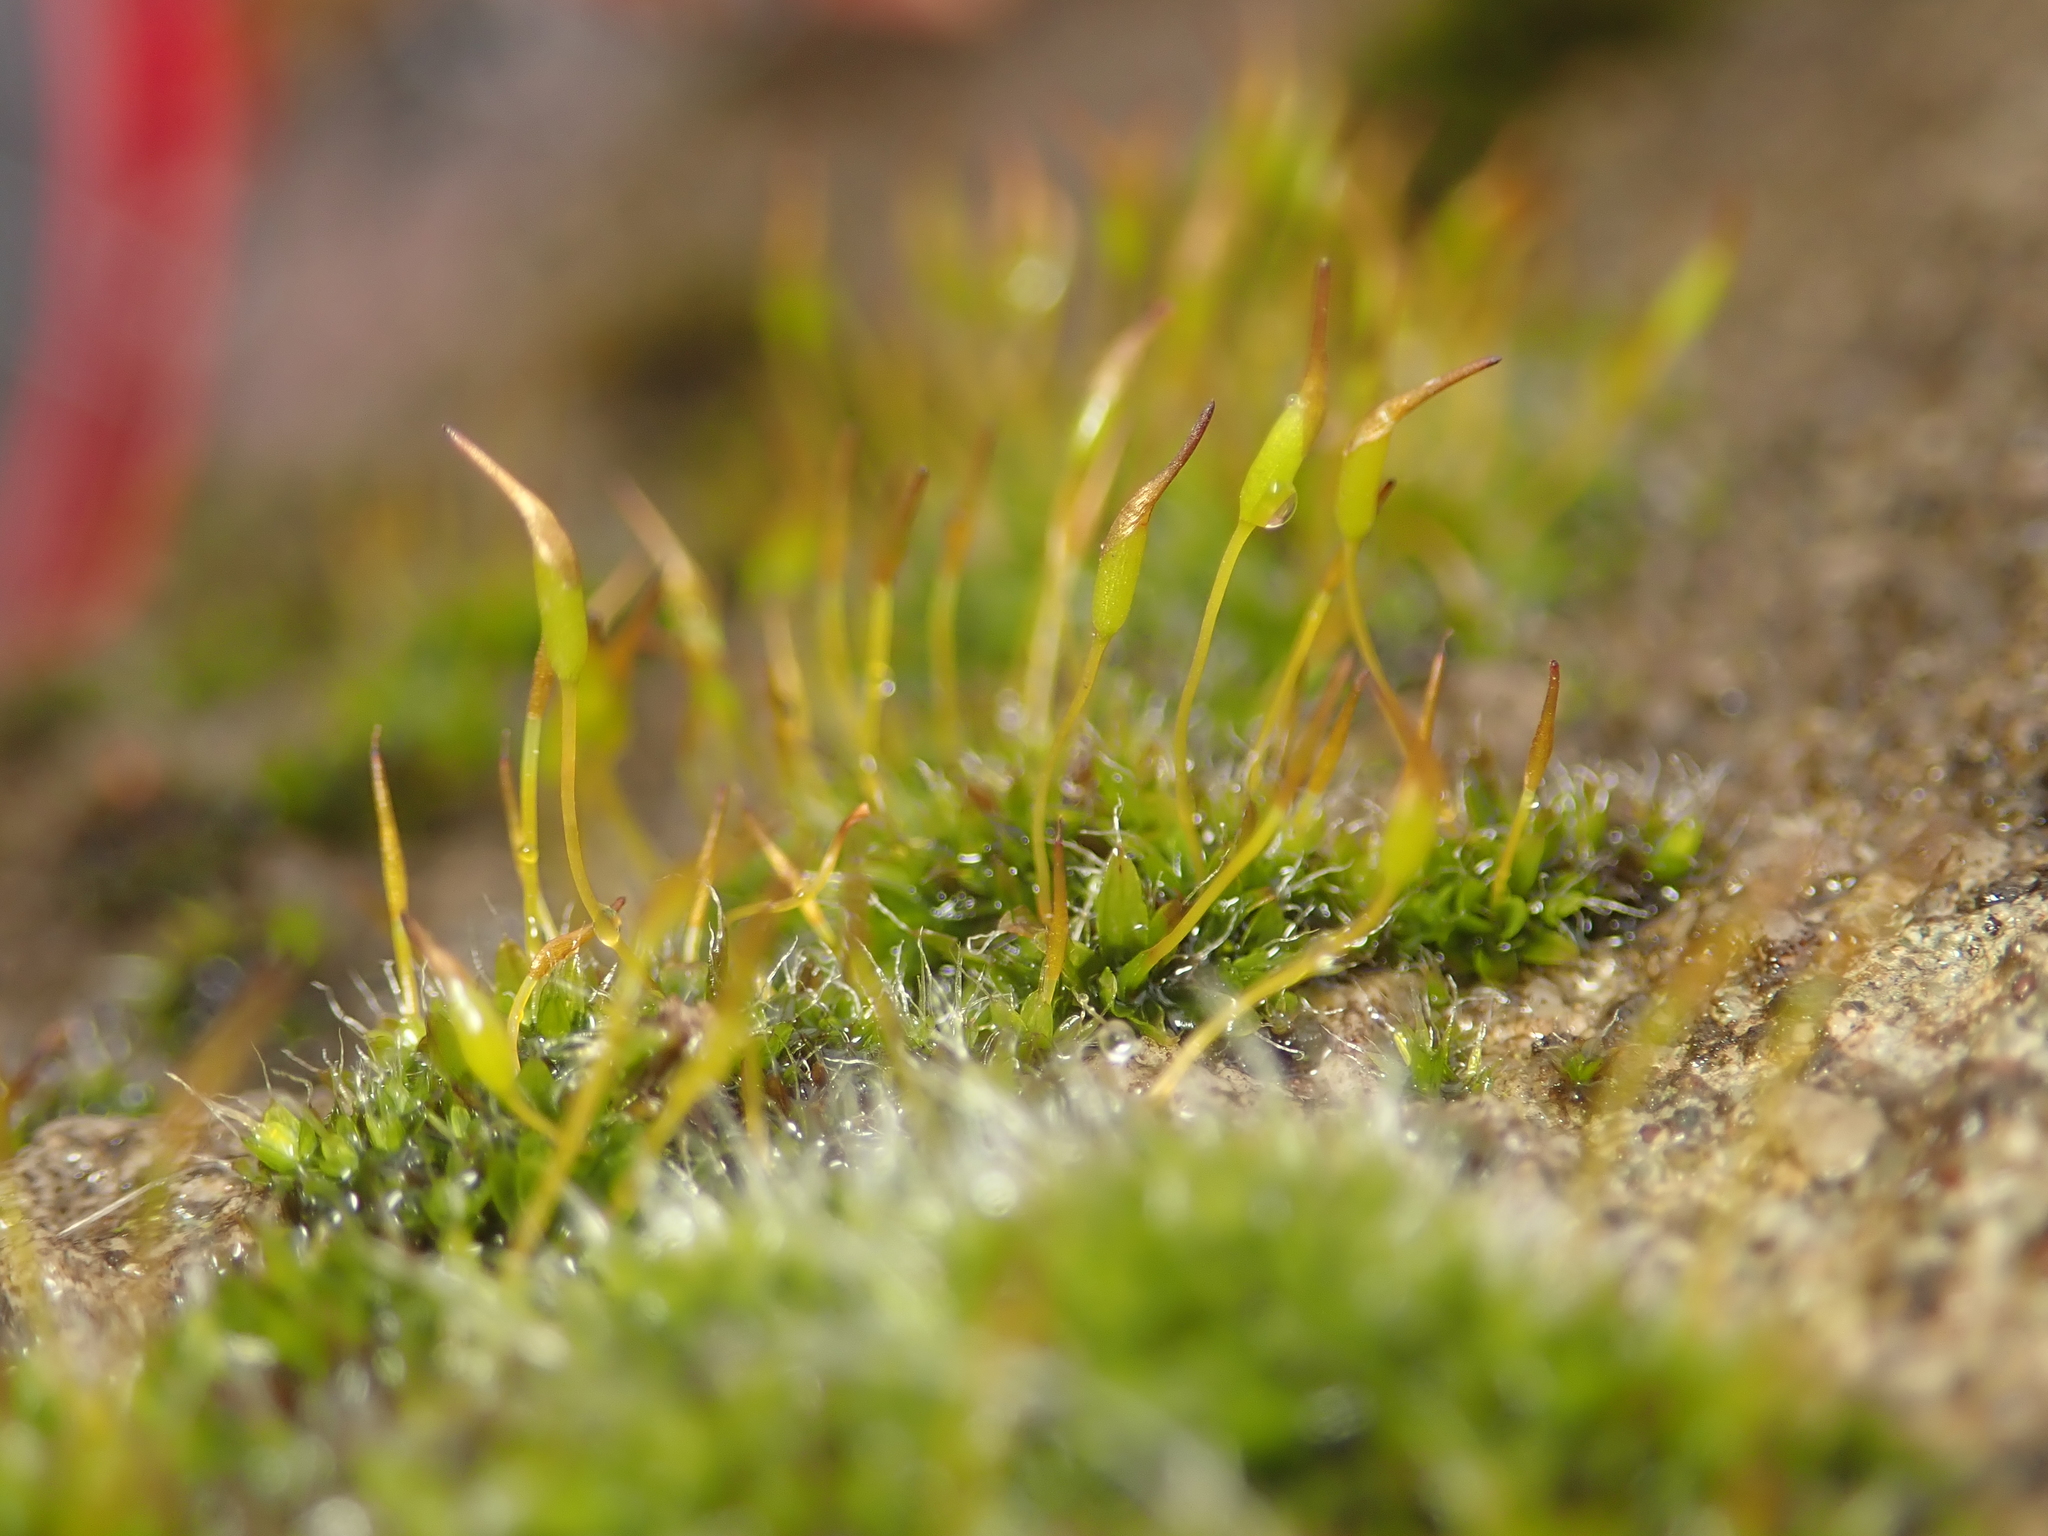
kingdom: Plantae
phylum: Bryophyta
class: Bryopsida
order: Pottiales
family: Pottiaceae
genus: Tortula
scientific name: Tortula muralis
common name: Wall screw-moss
